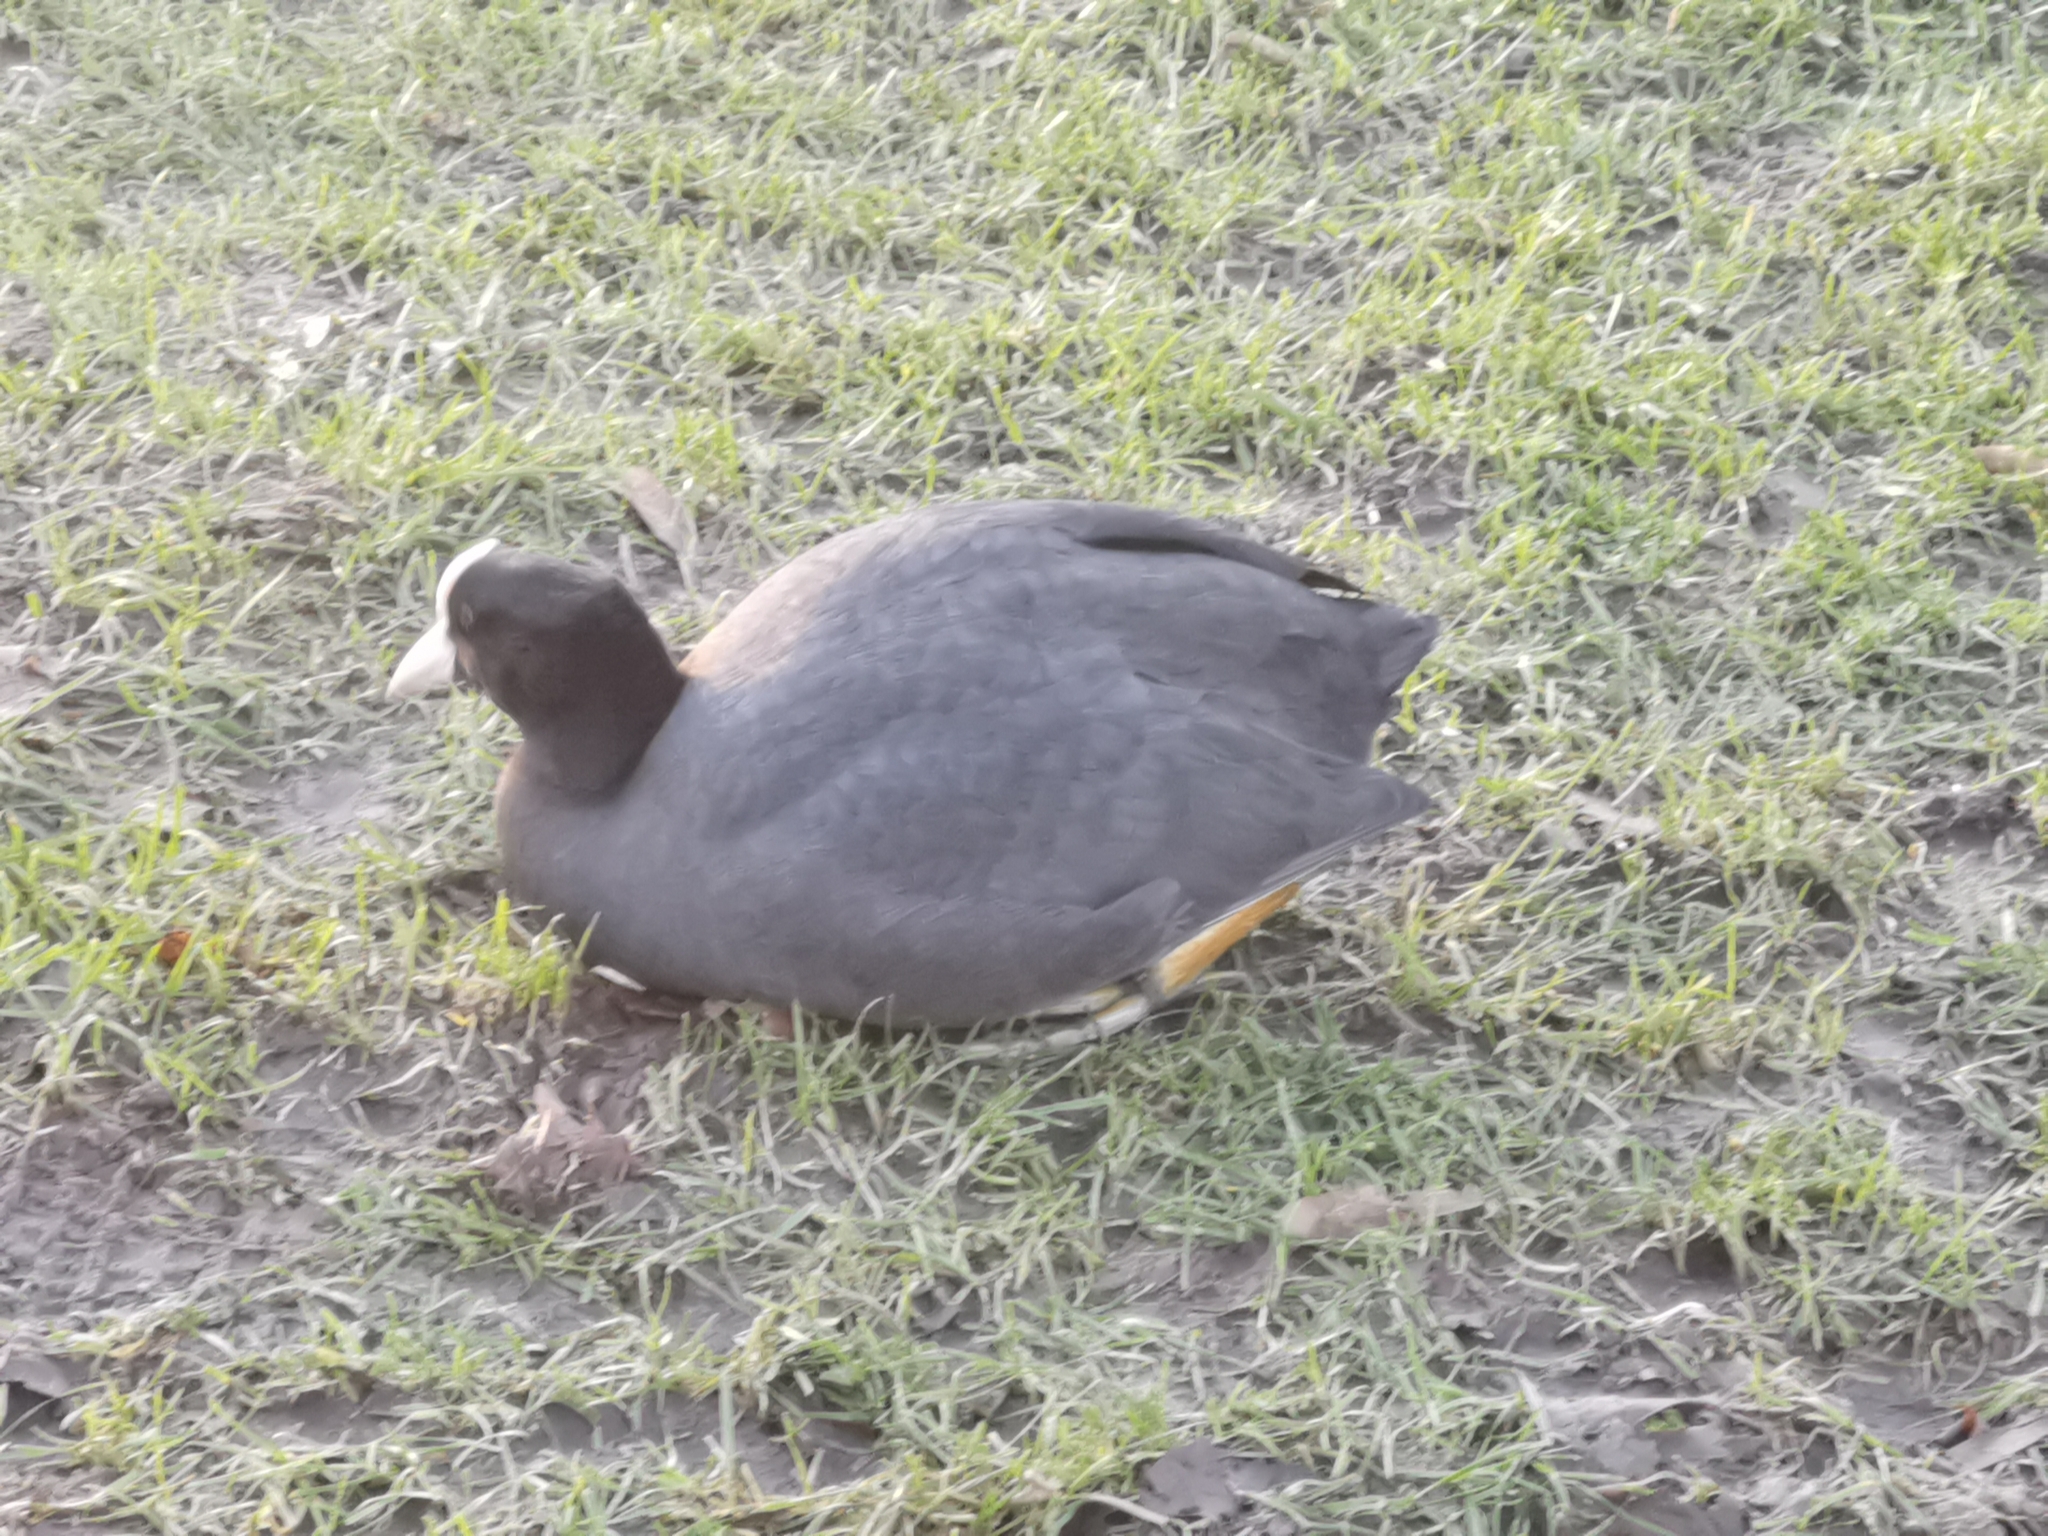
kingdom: Animalia
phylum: Chordata
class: Aves
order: Gruiformes
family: Rallidae
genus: Fulica
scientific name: Fulica atra
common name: Eurasian coot
